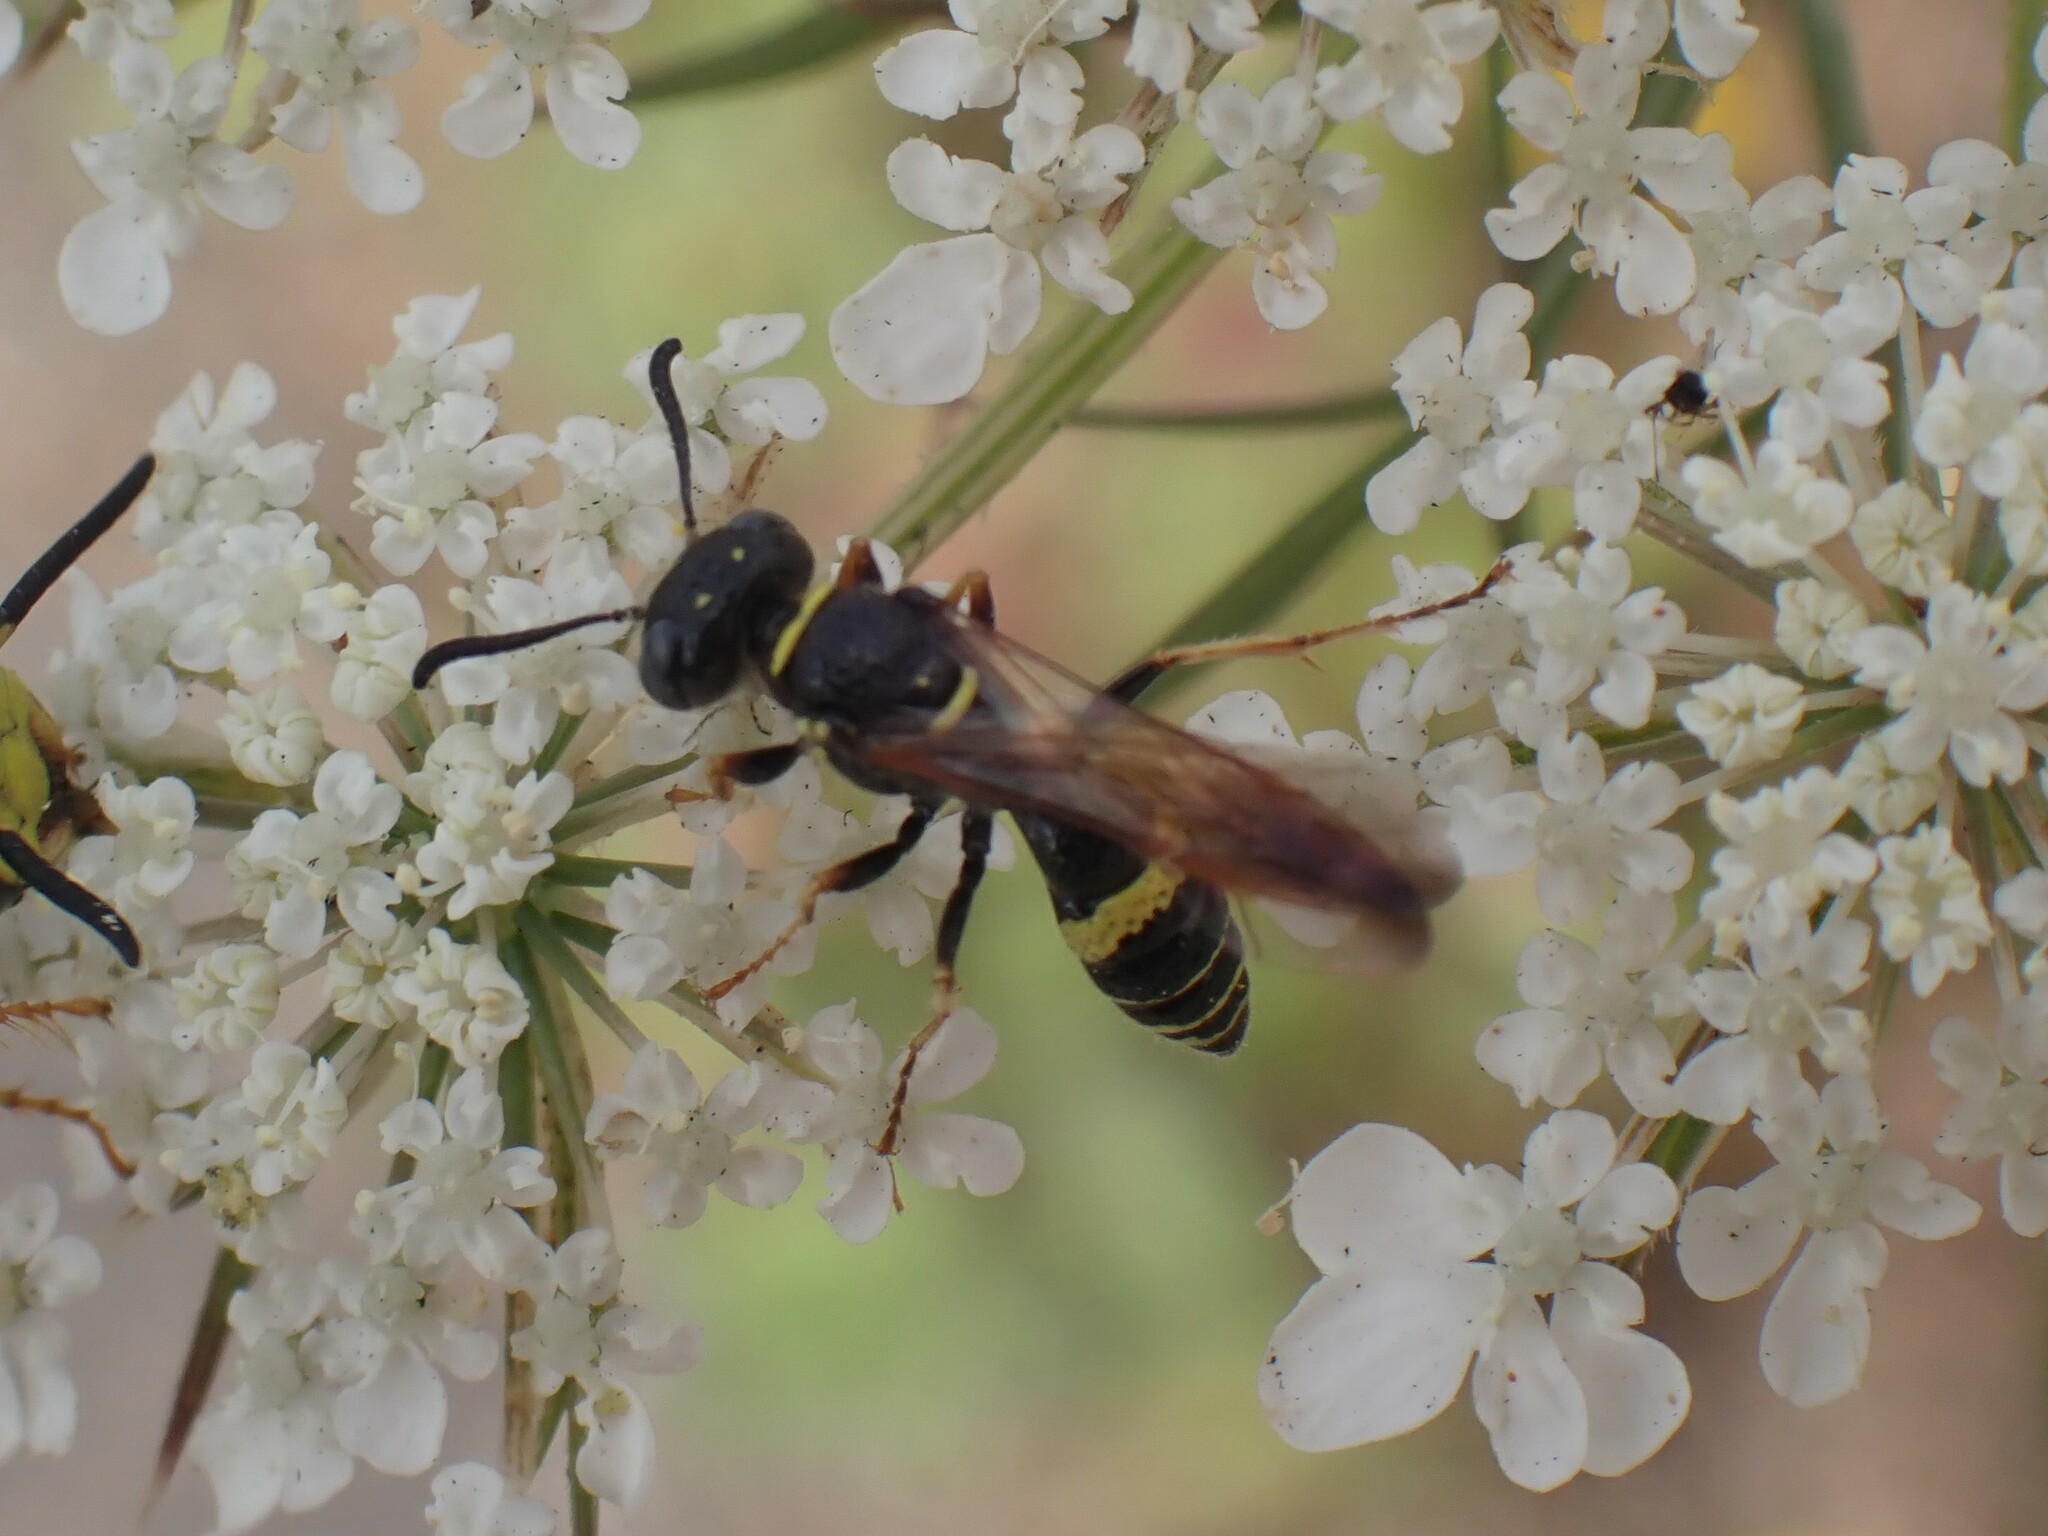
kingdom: Animalia
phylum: Arthropoda
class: Insecta
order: Hymenoptera
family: Crabronidae
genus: Philanthus
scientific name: Philanthus gibbosus
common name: Humped beewolf
